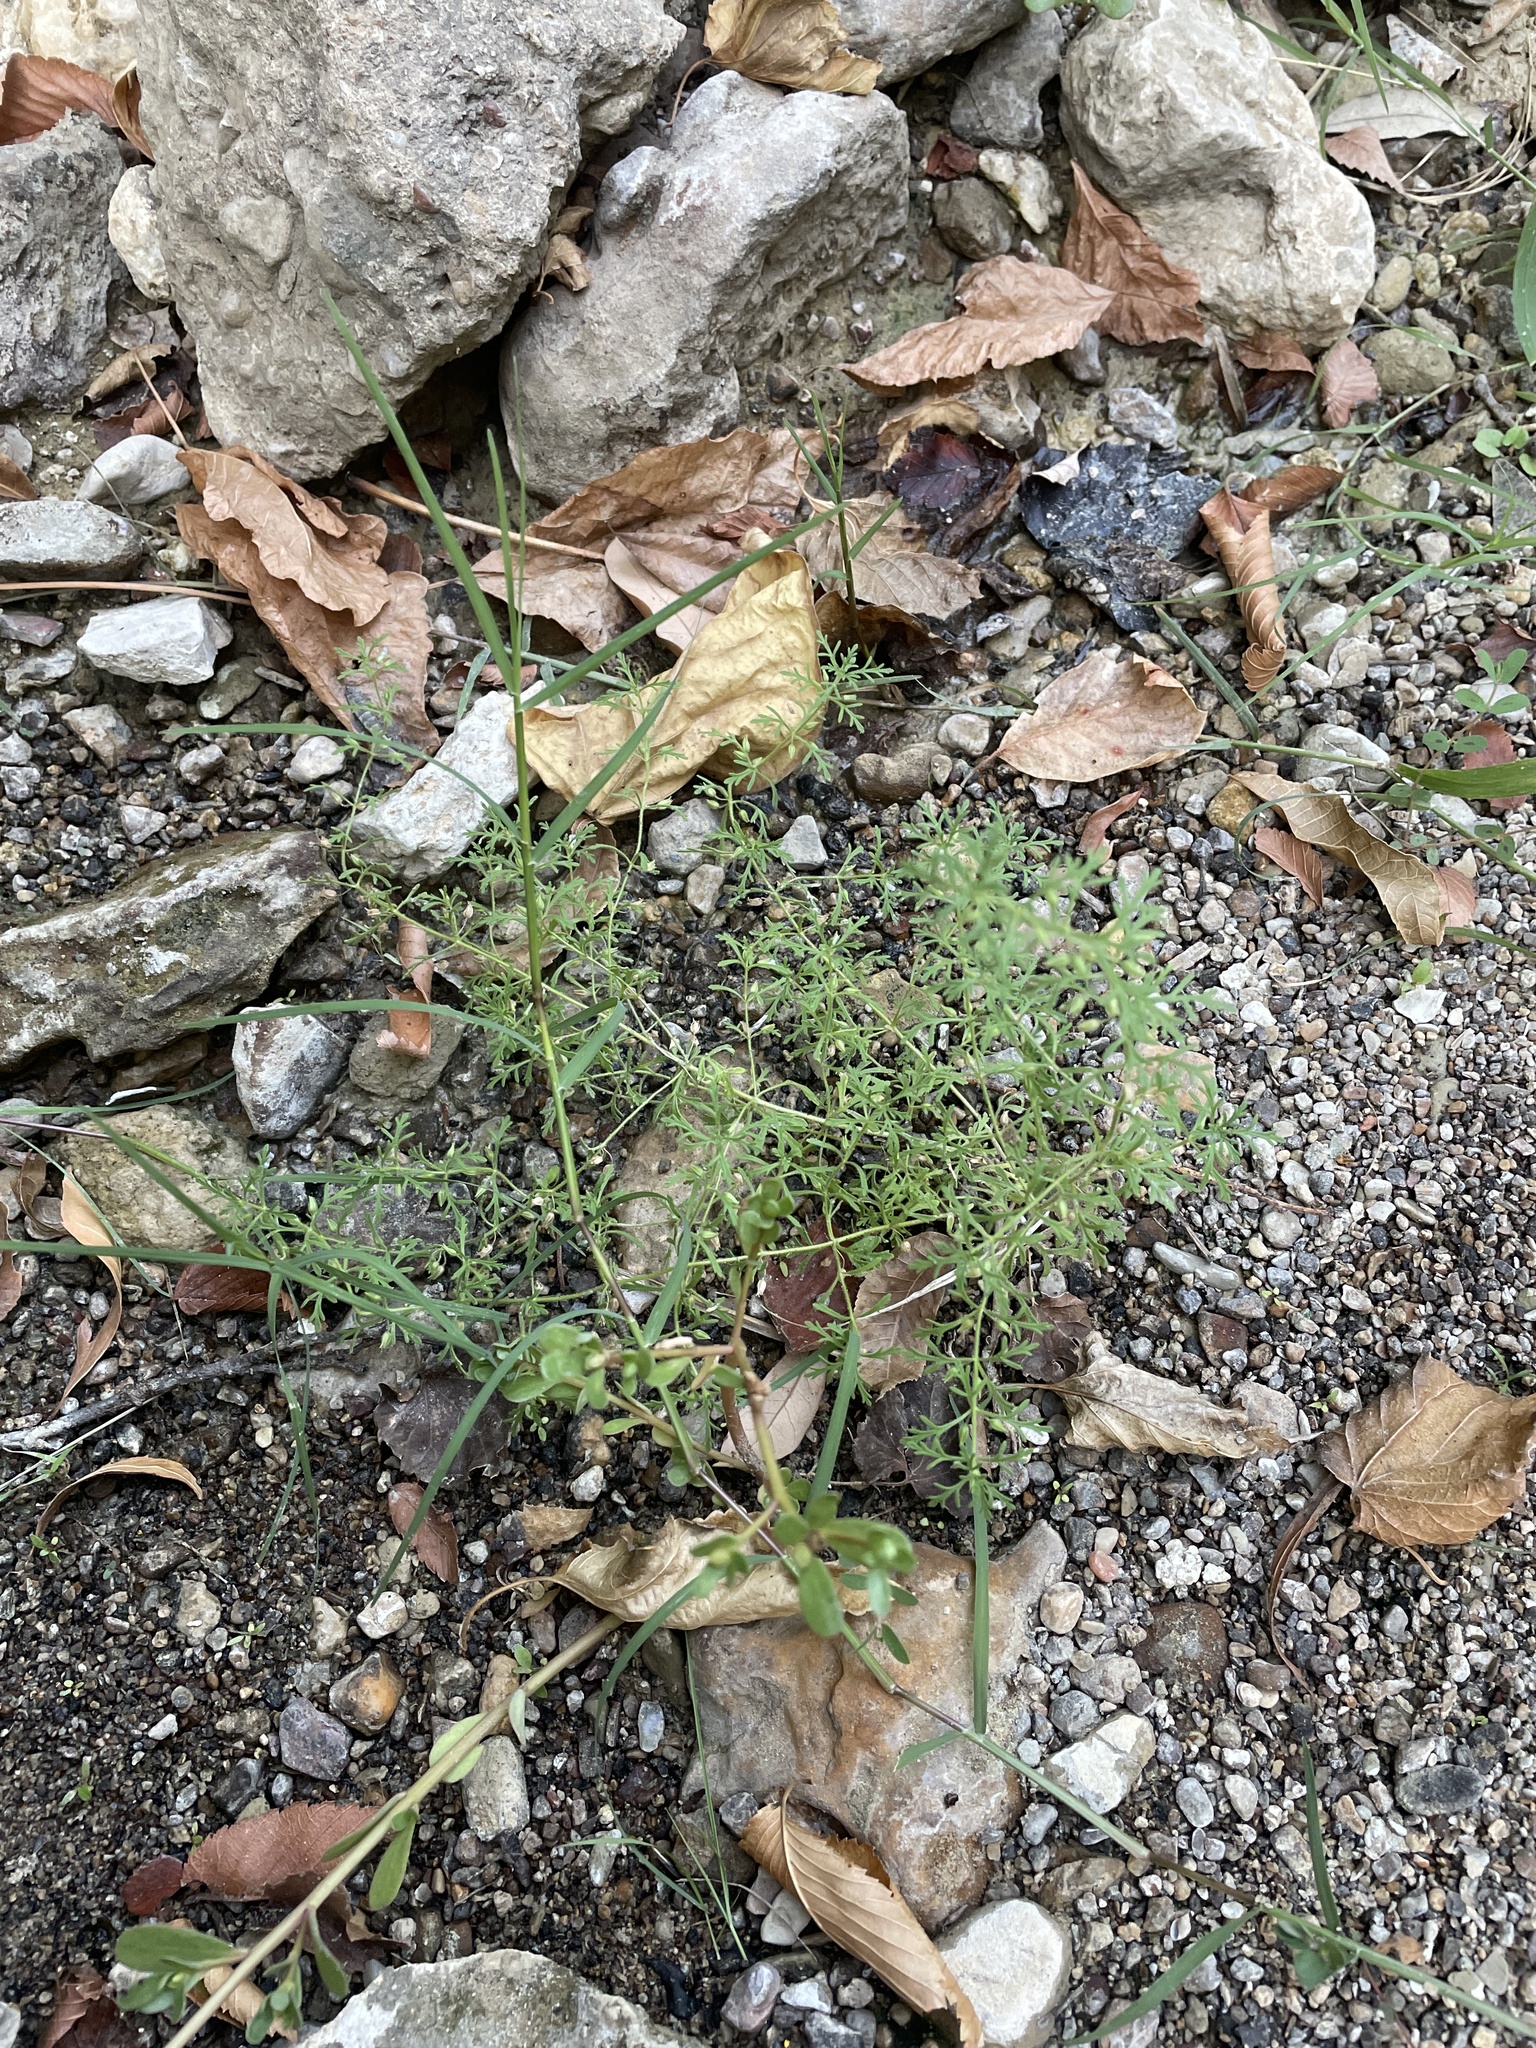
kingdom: Plantae
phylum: Tracheophyta
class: Magnoliopsida
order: Lamiales
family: Plantaginaceae
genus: Leucospora
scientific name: Leucospora multifida
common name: Narrow-leaf paleseed
